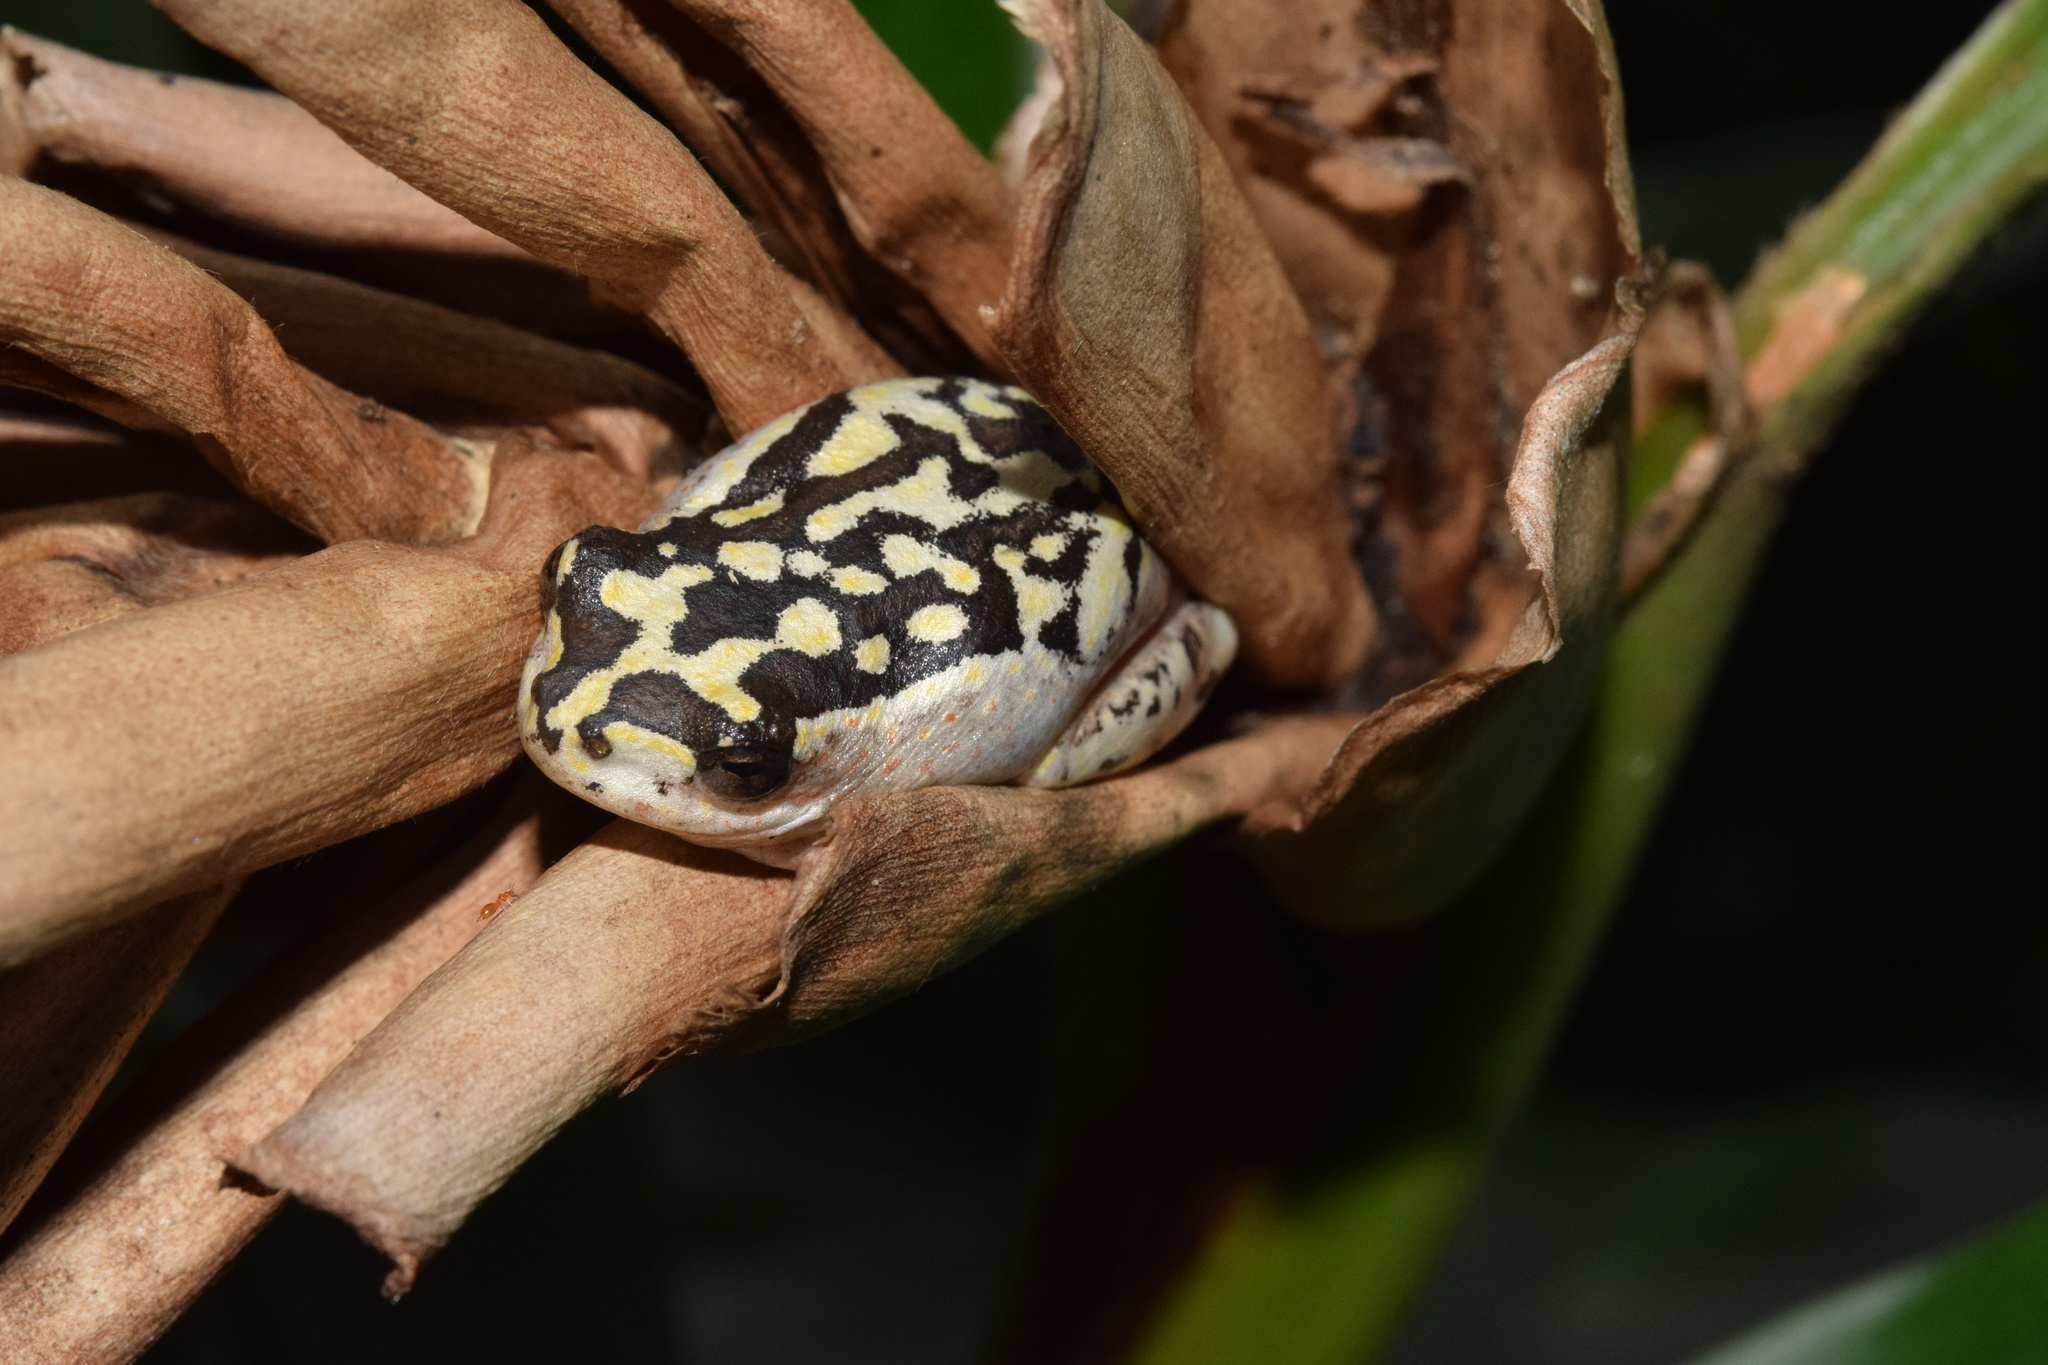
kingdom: Animalia
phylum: Chordata
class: Amphibia
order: Anura
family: Hyperoliidae
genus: Hyperolius
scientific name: Hyperolius marmoratus
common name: Painted reed frog
